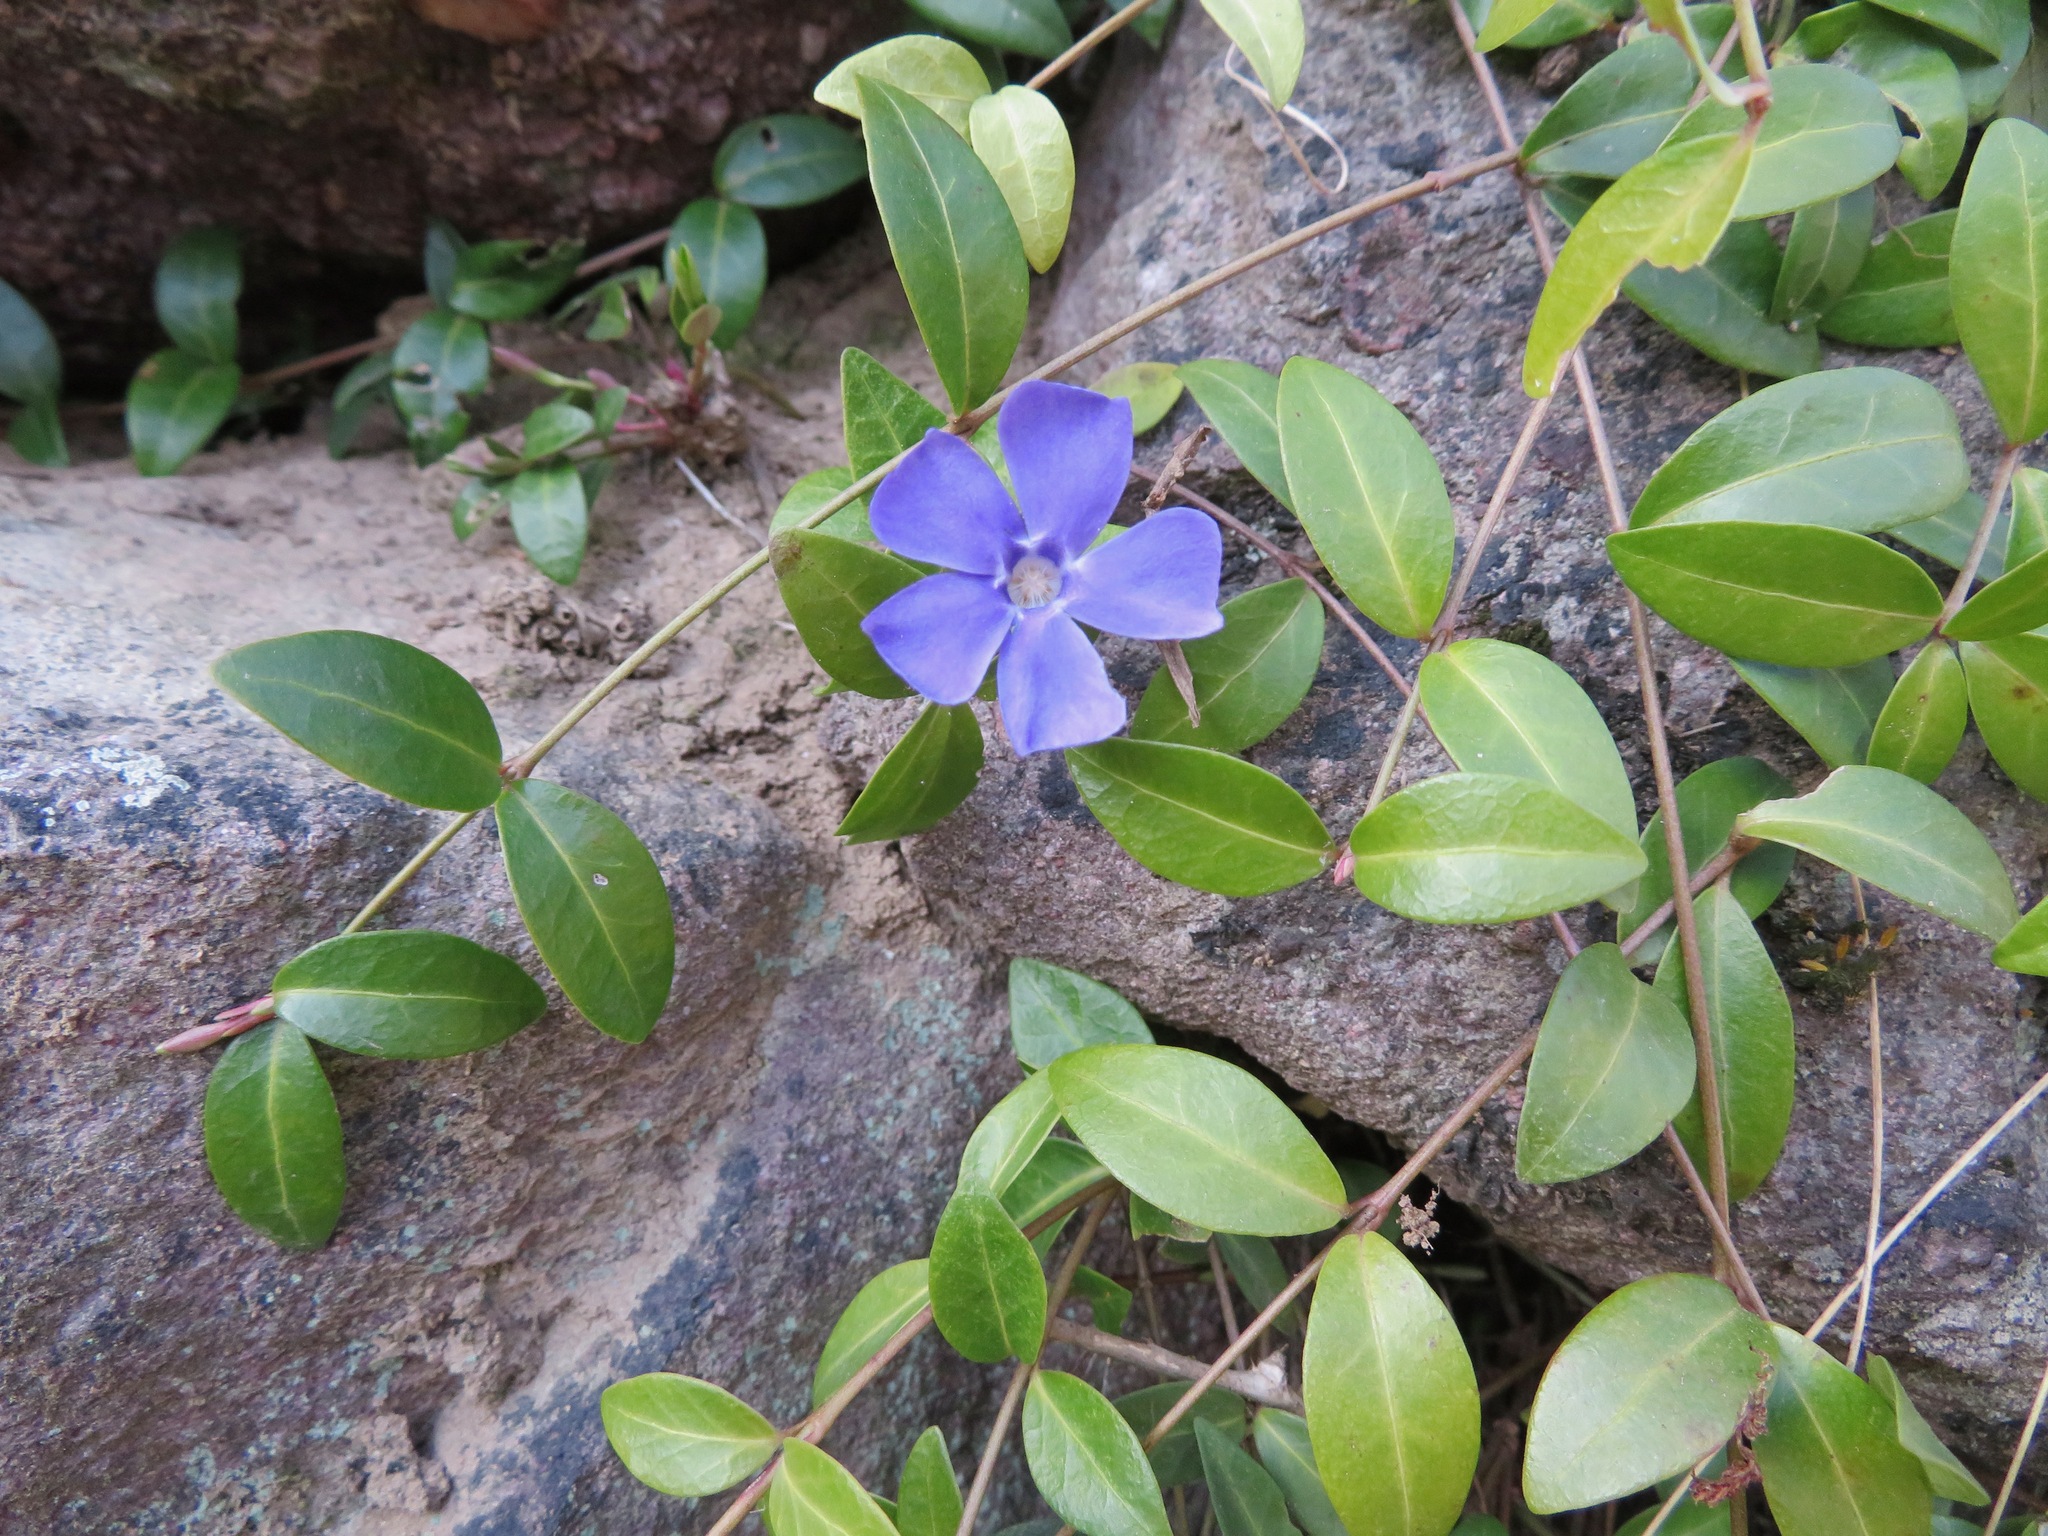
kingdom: Plantae
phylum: Tracheophyta
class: Magnoliopsida
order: Gentianales
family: Apocynaceae
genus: Vinca
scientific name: Vinca minor
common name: Lesser periwinkle
